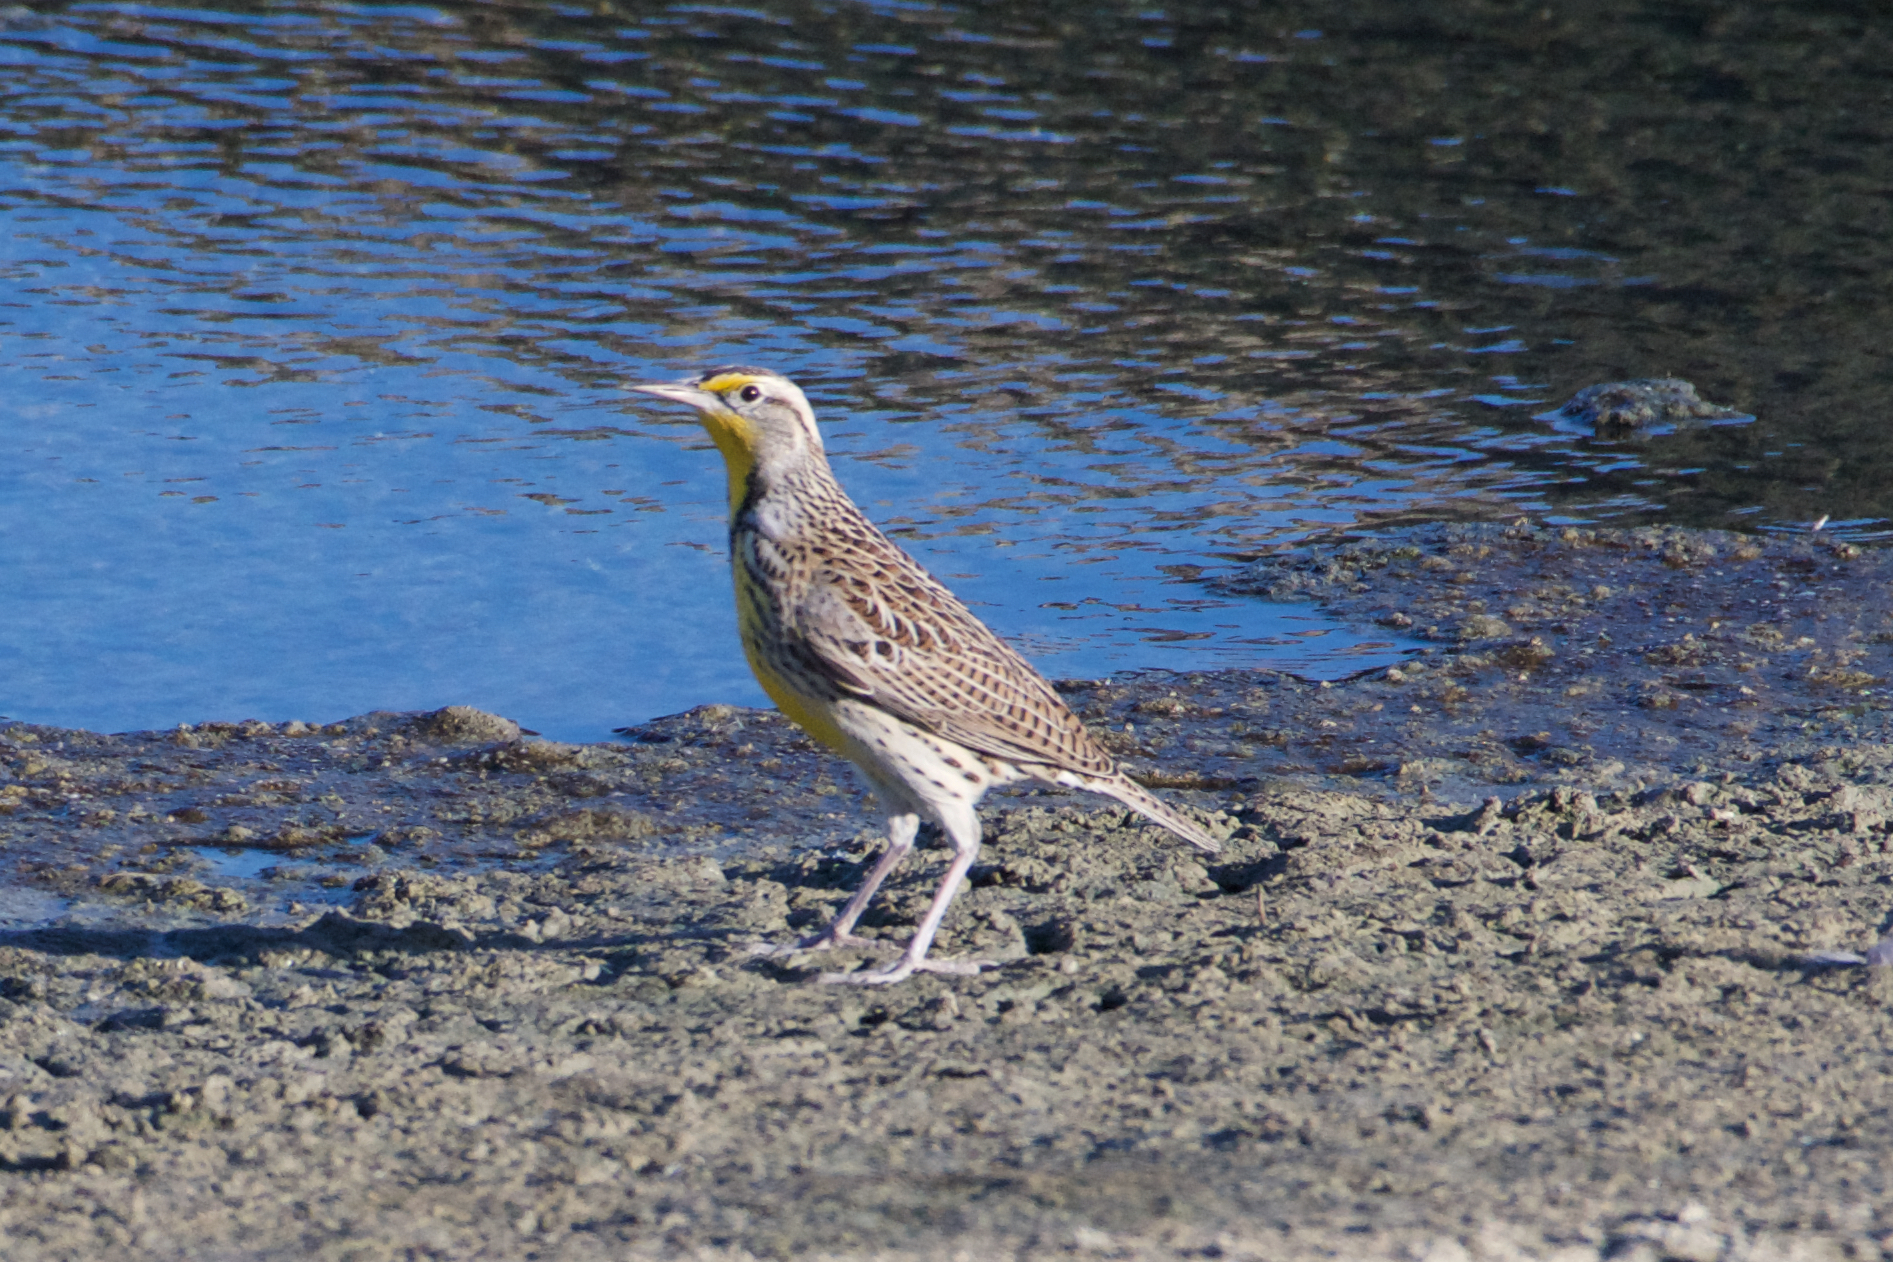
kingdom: Animalia
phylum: Chordata
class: Aves
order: Passeriformes
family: Icteridae
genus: Sturnella
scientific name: Sturnella neglecta
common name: Western meadowlark
